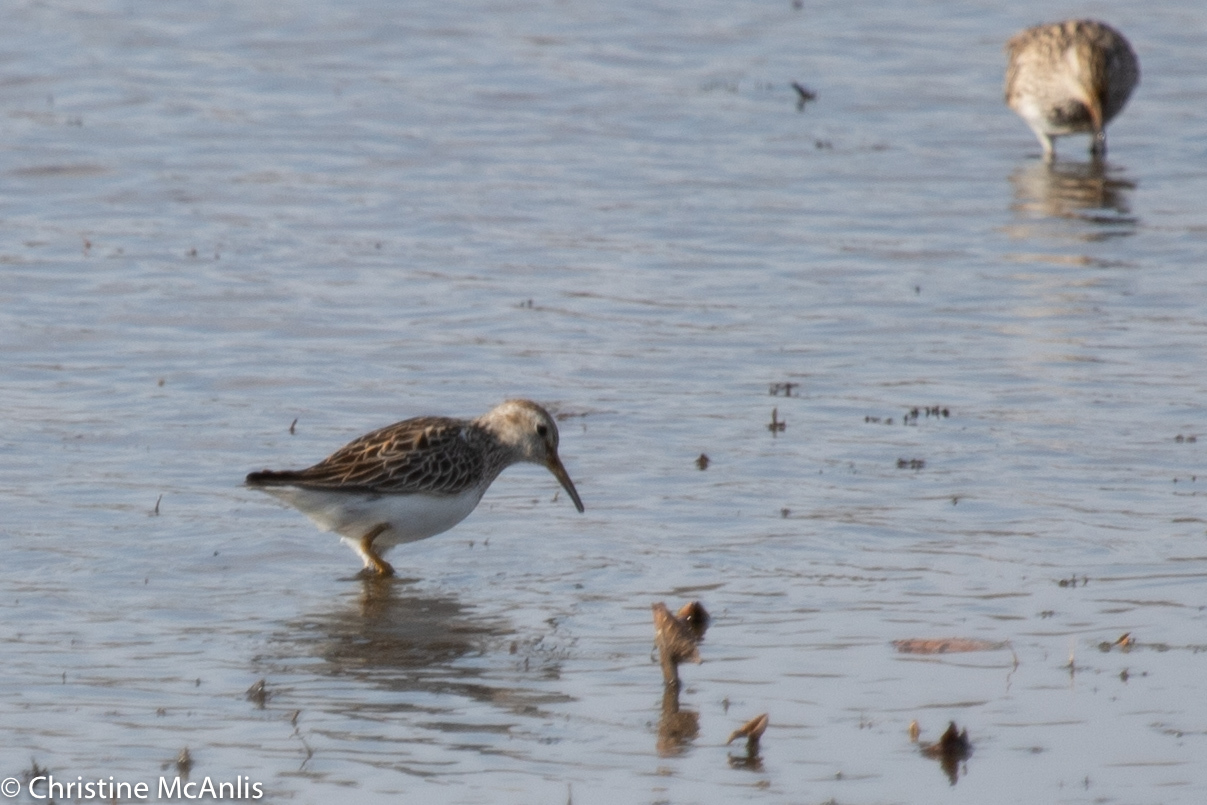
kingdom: Animalia
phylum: Chordata
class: Aves
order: Charadriiformes
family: Scolopacidae
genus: Calidris
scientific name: Calidris melanotos
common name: Pectoral sandpiper
